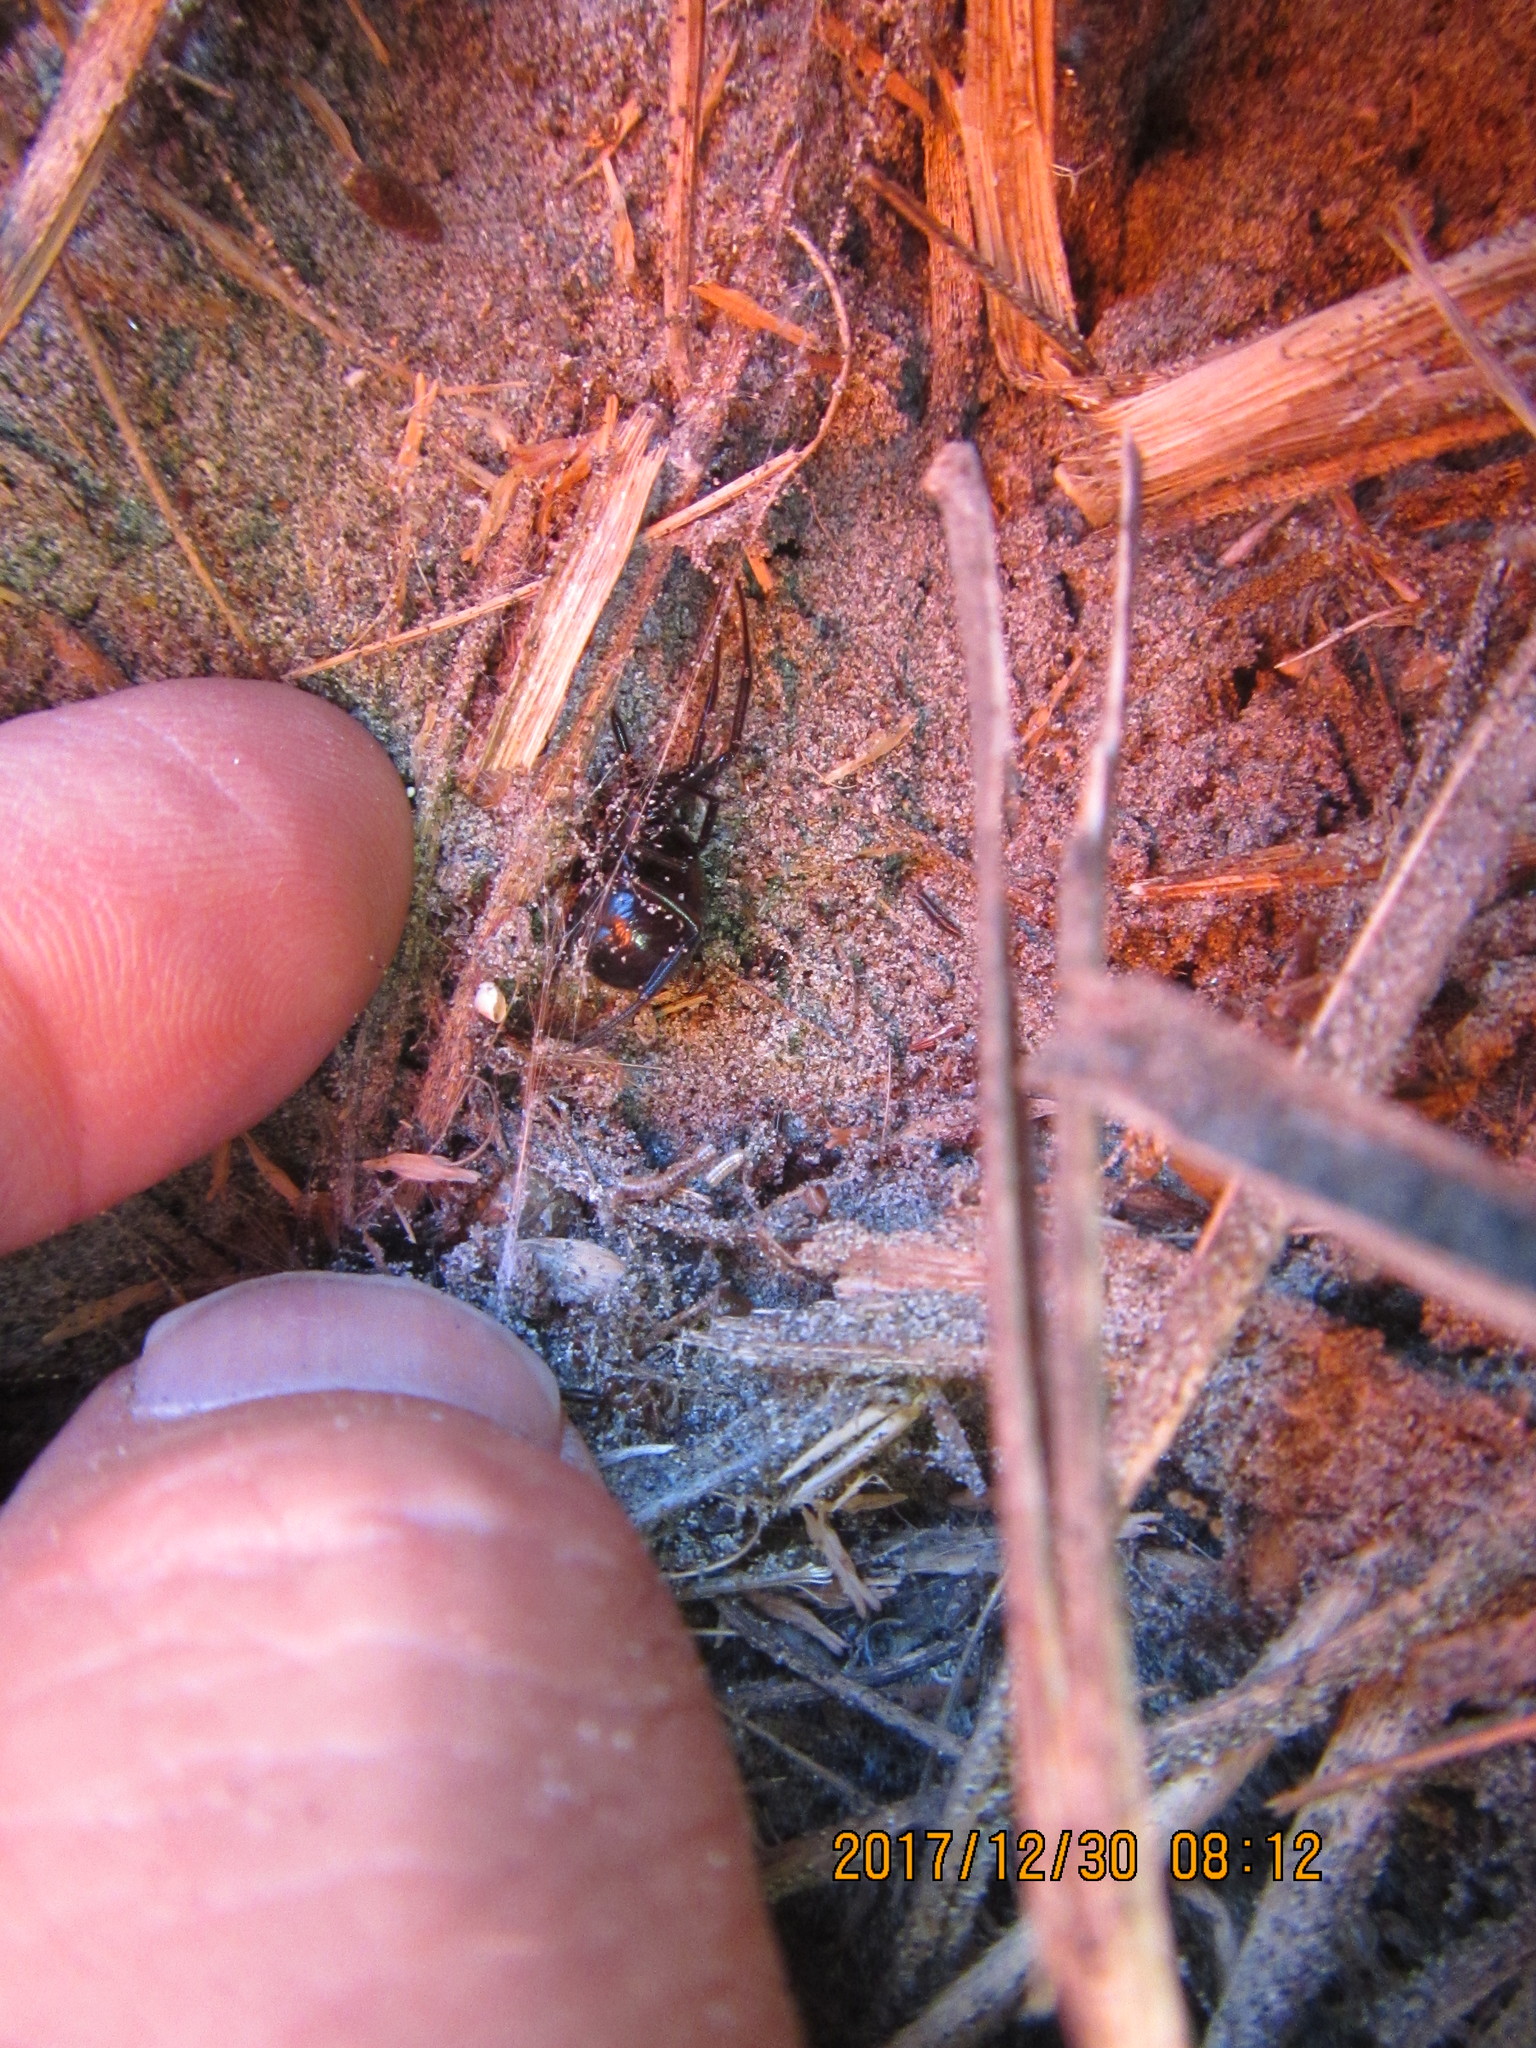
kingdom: Animalia
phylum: Arthropoda
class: Arachnida
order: Araneae
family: Theridiidae
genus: Steatoda
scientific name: Steatoda capensis
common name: Cobweb weaver
